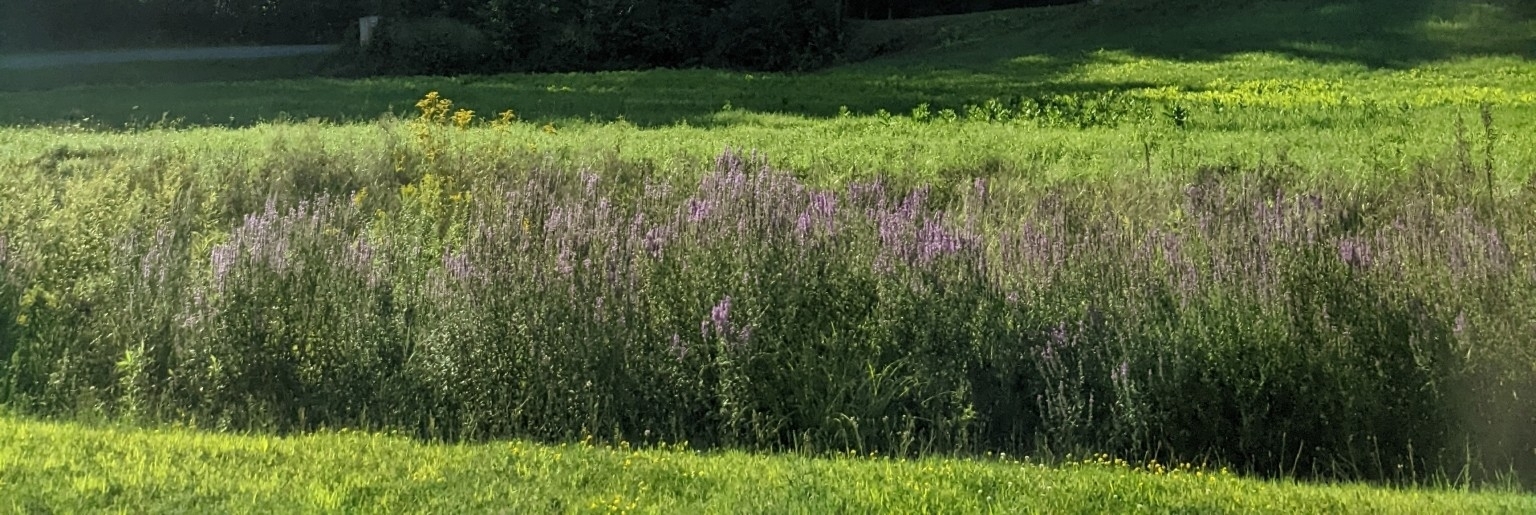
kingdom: Plantae
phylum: Tracheophyta
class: Magnoliopsida
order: Myrtales
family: Lythraceae
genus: Lythrum
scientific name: Lythrum salicaria
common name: Purple loosestrife
